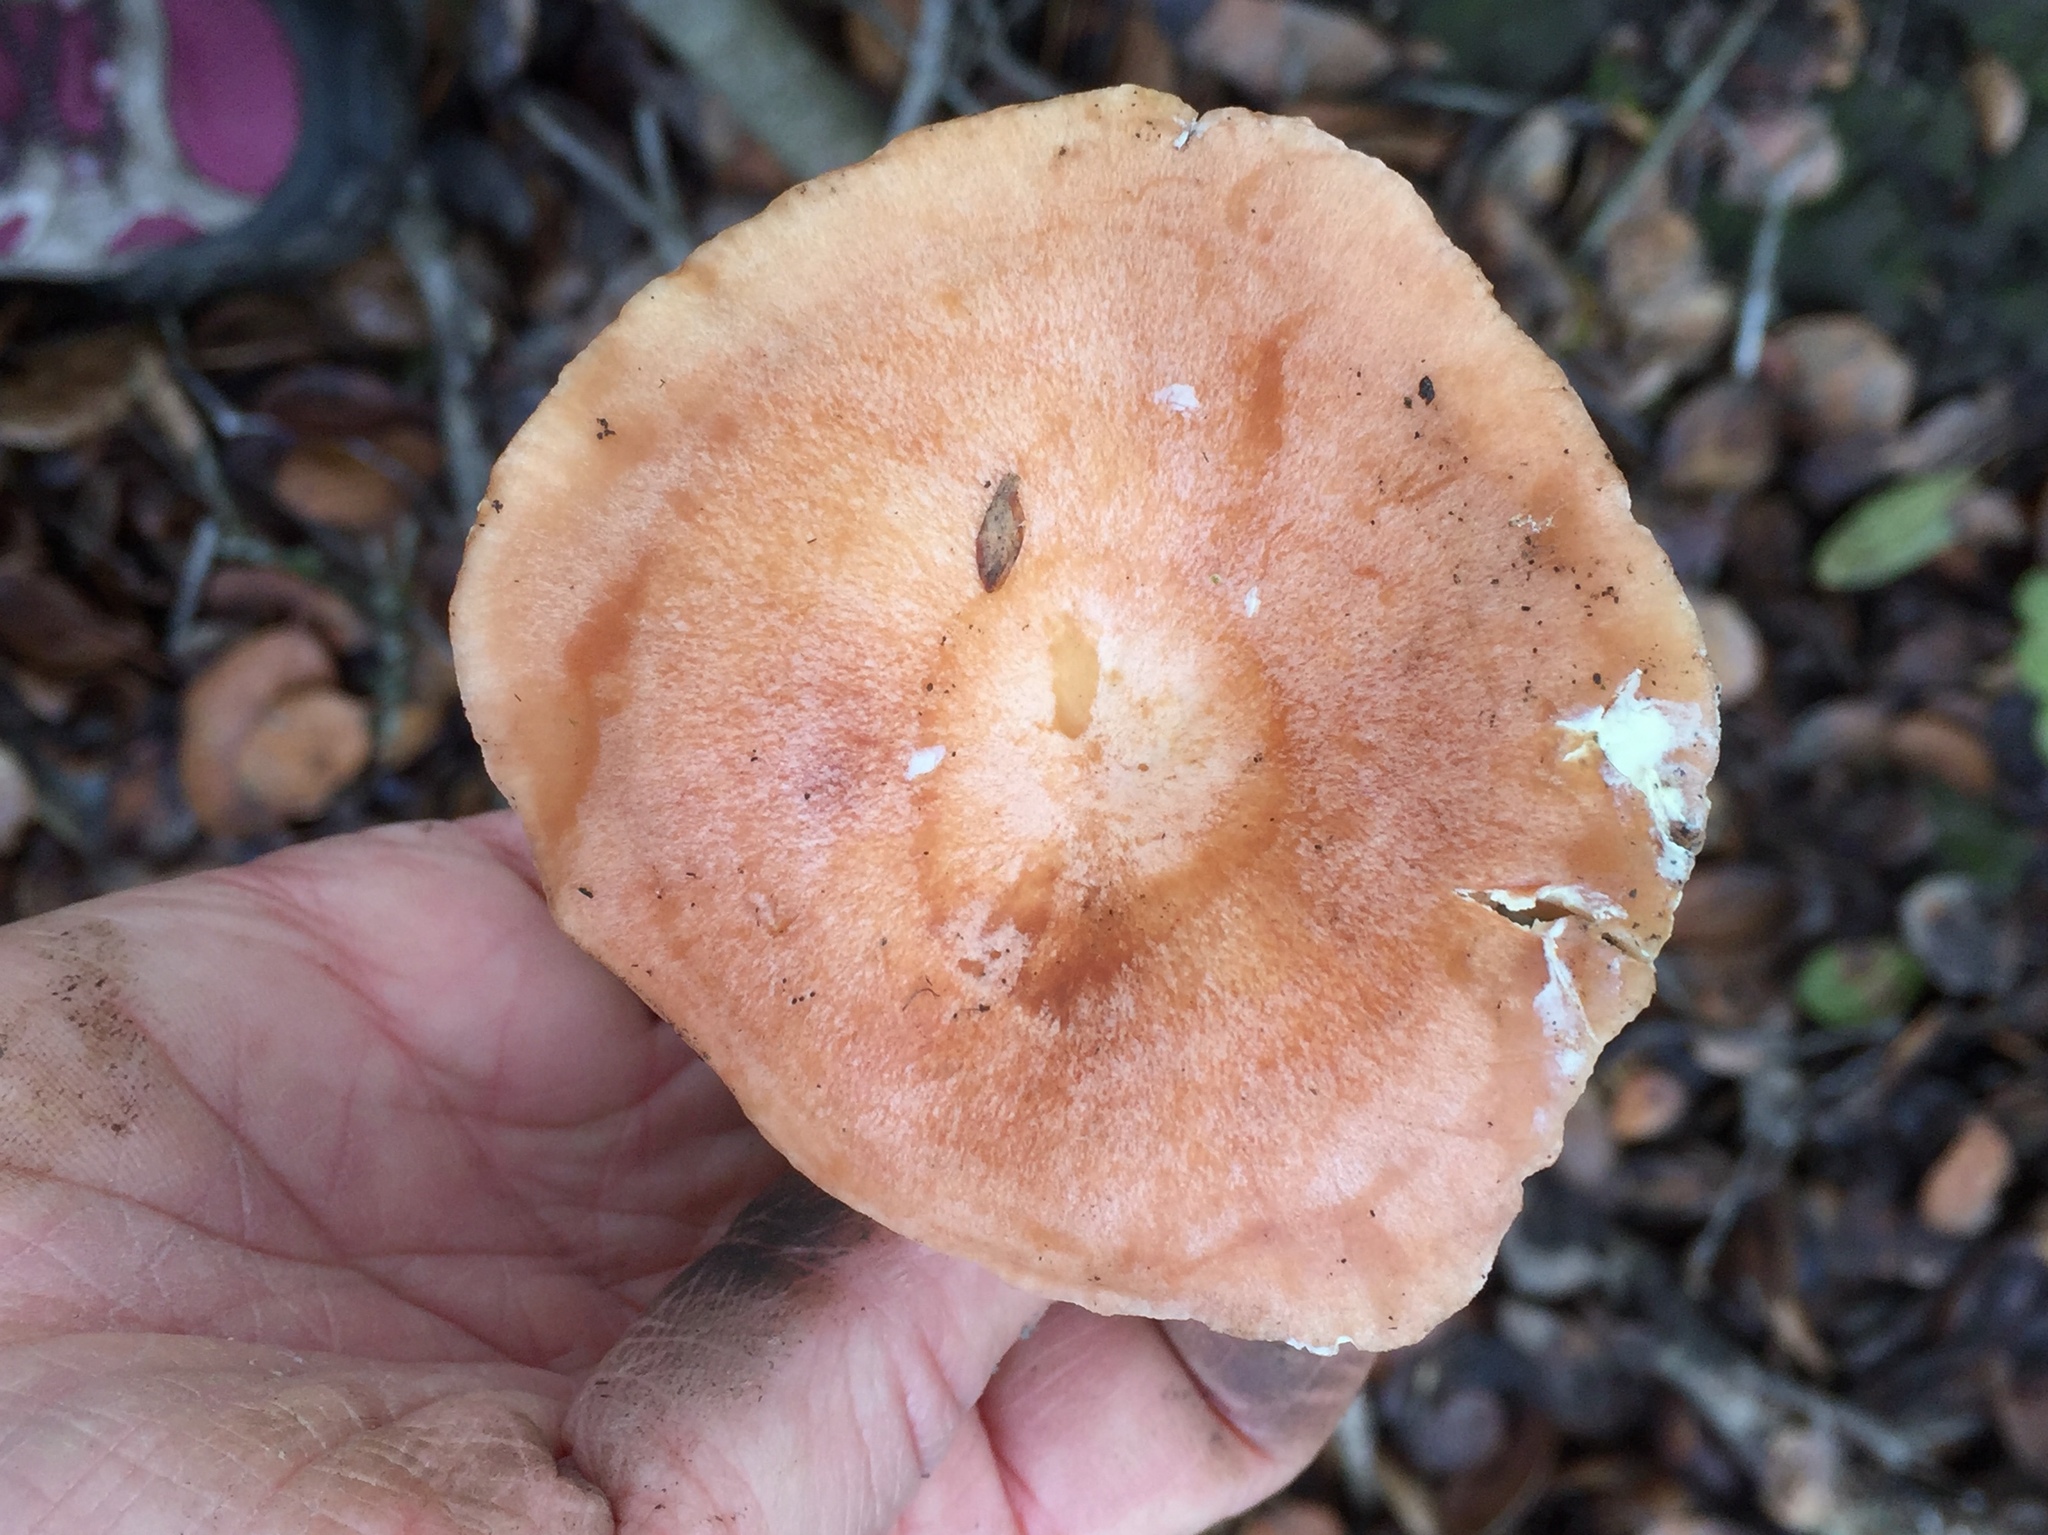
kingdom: Fungi
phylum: Basidiomycota
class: Agaricomycetes
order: Russulales
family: Russulaceae
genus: Lactarius
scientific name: Lactarius xanthogalactus
